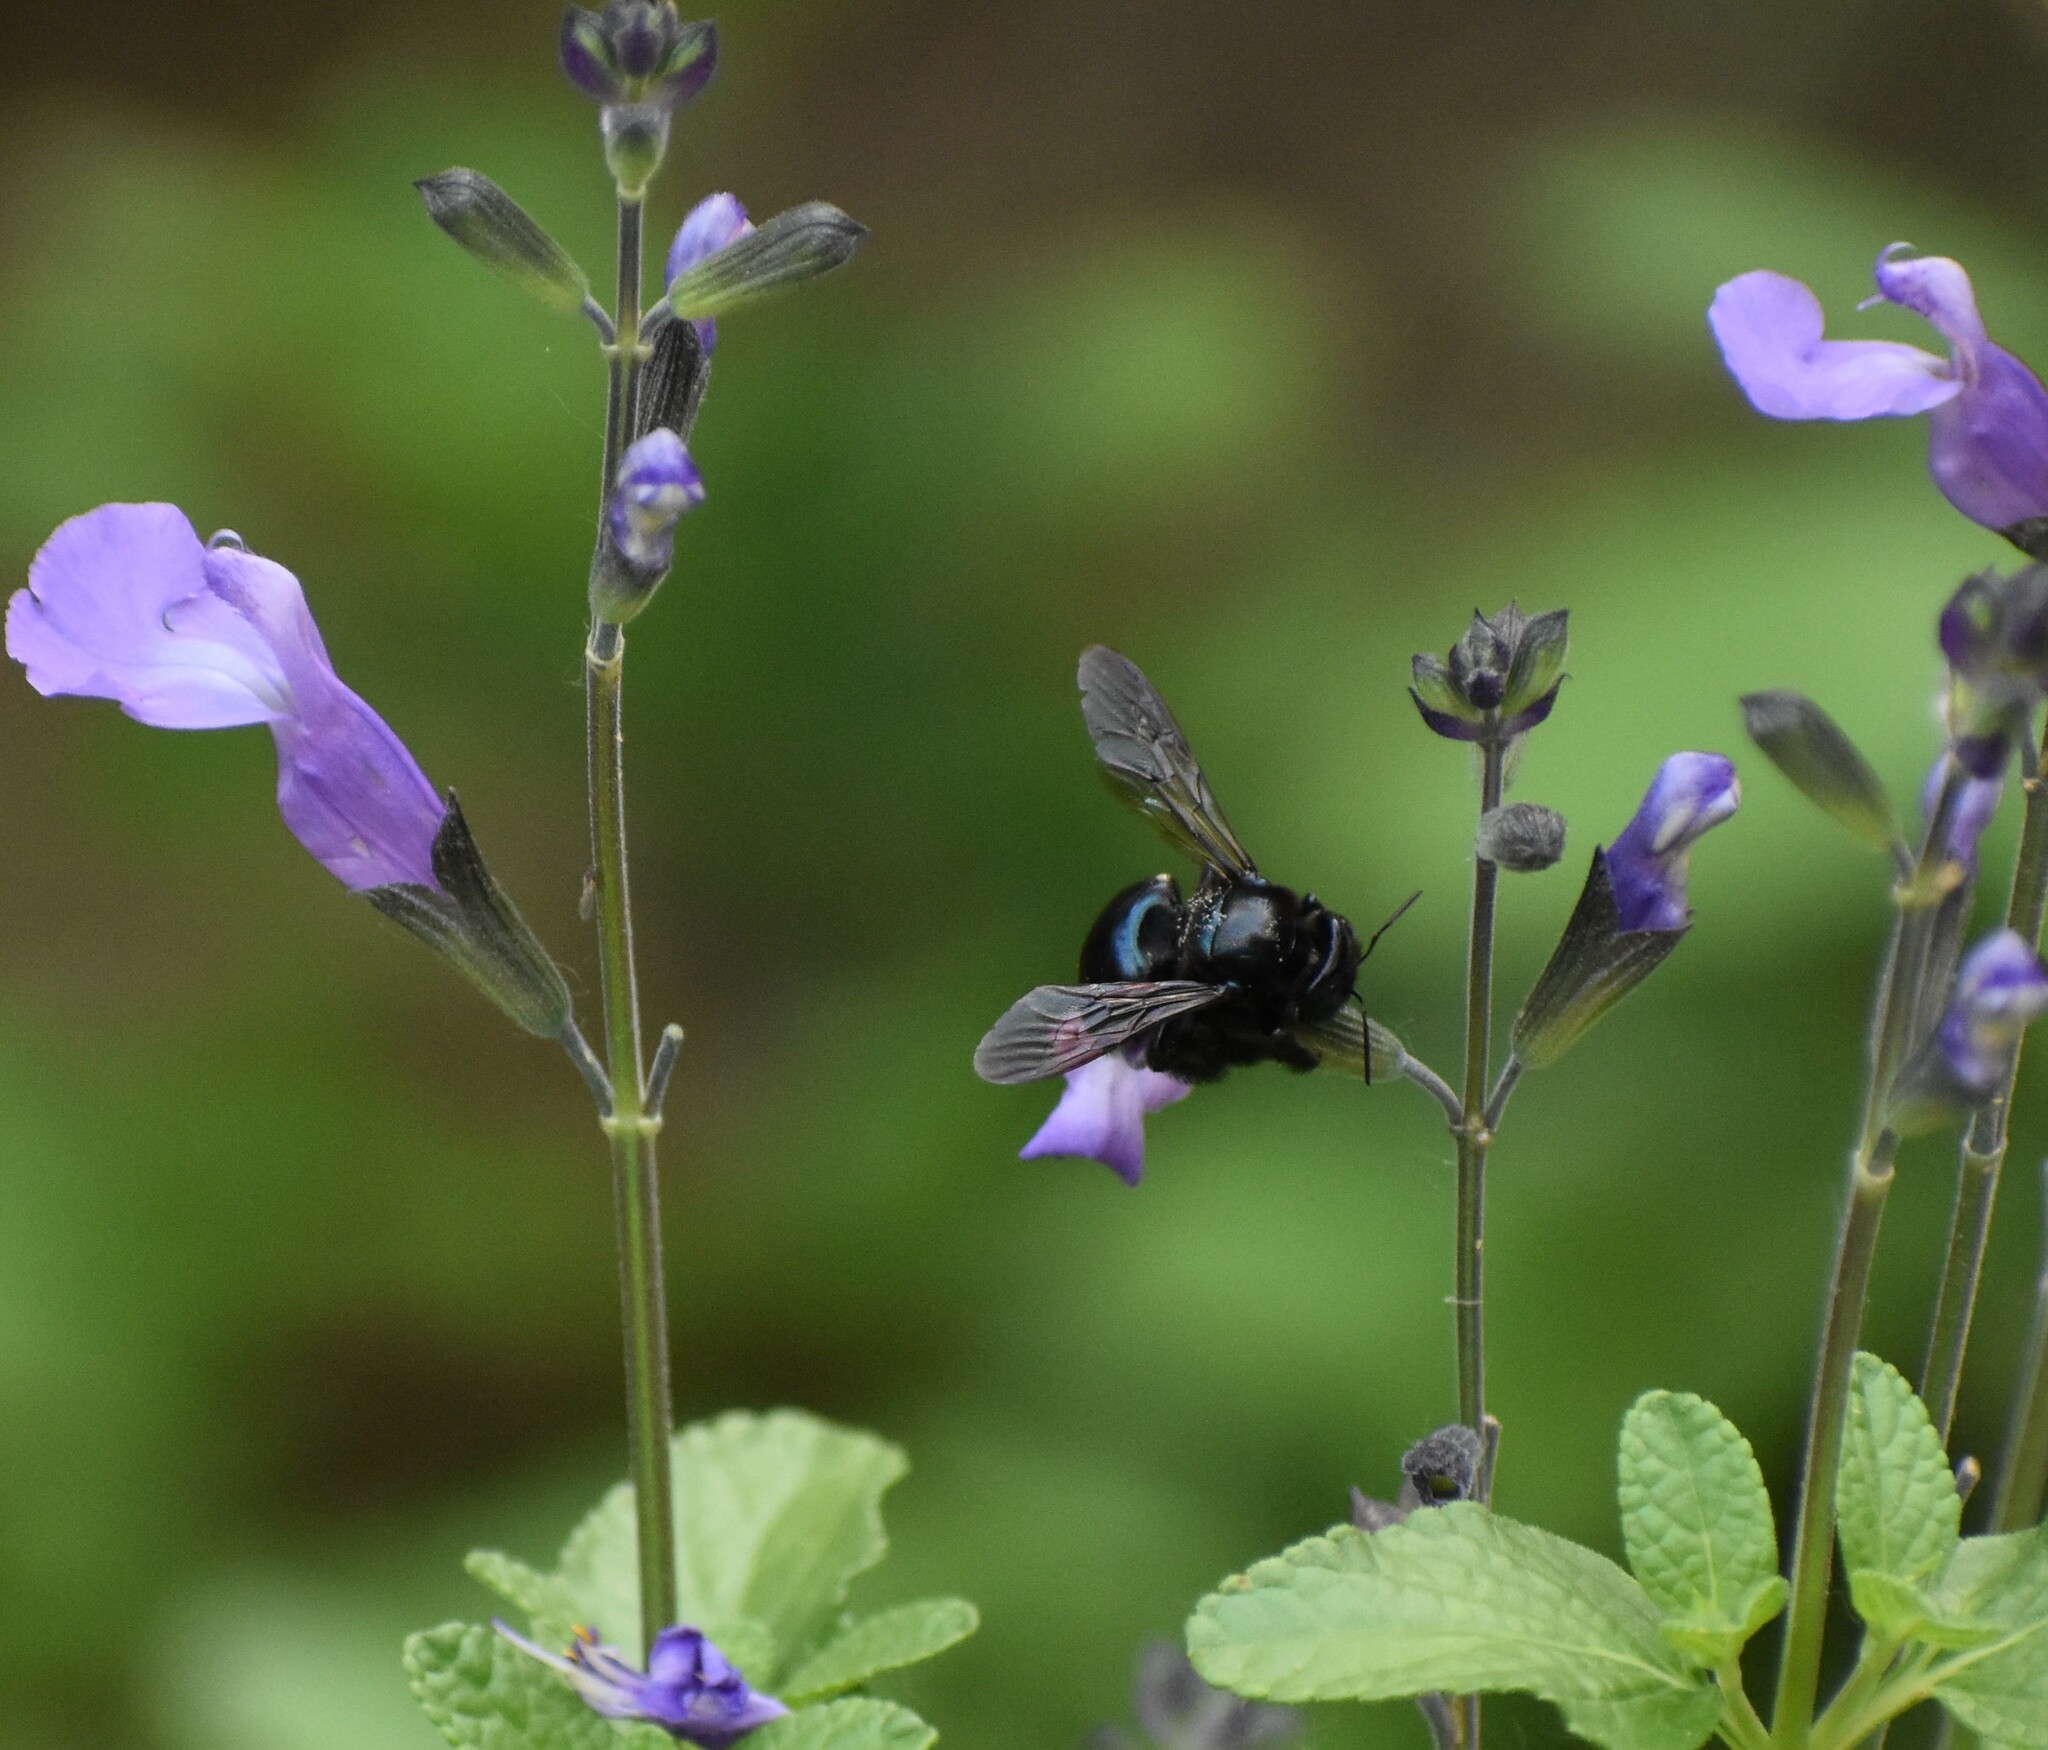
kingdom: Animalia
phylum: Arthropoda
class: Insecta
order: Hymenoptera
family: Apidae
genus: Xylocopa
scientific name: Xylocopa micans
